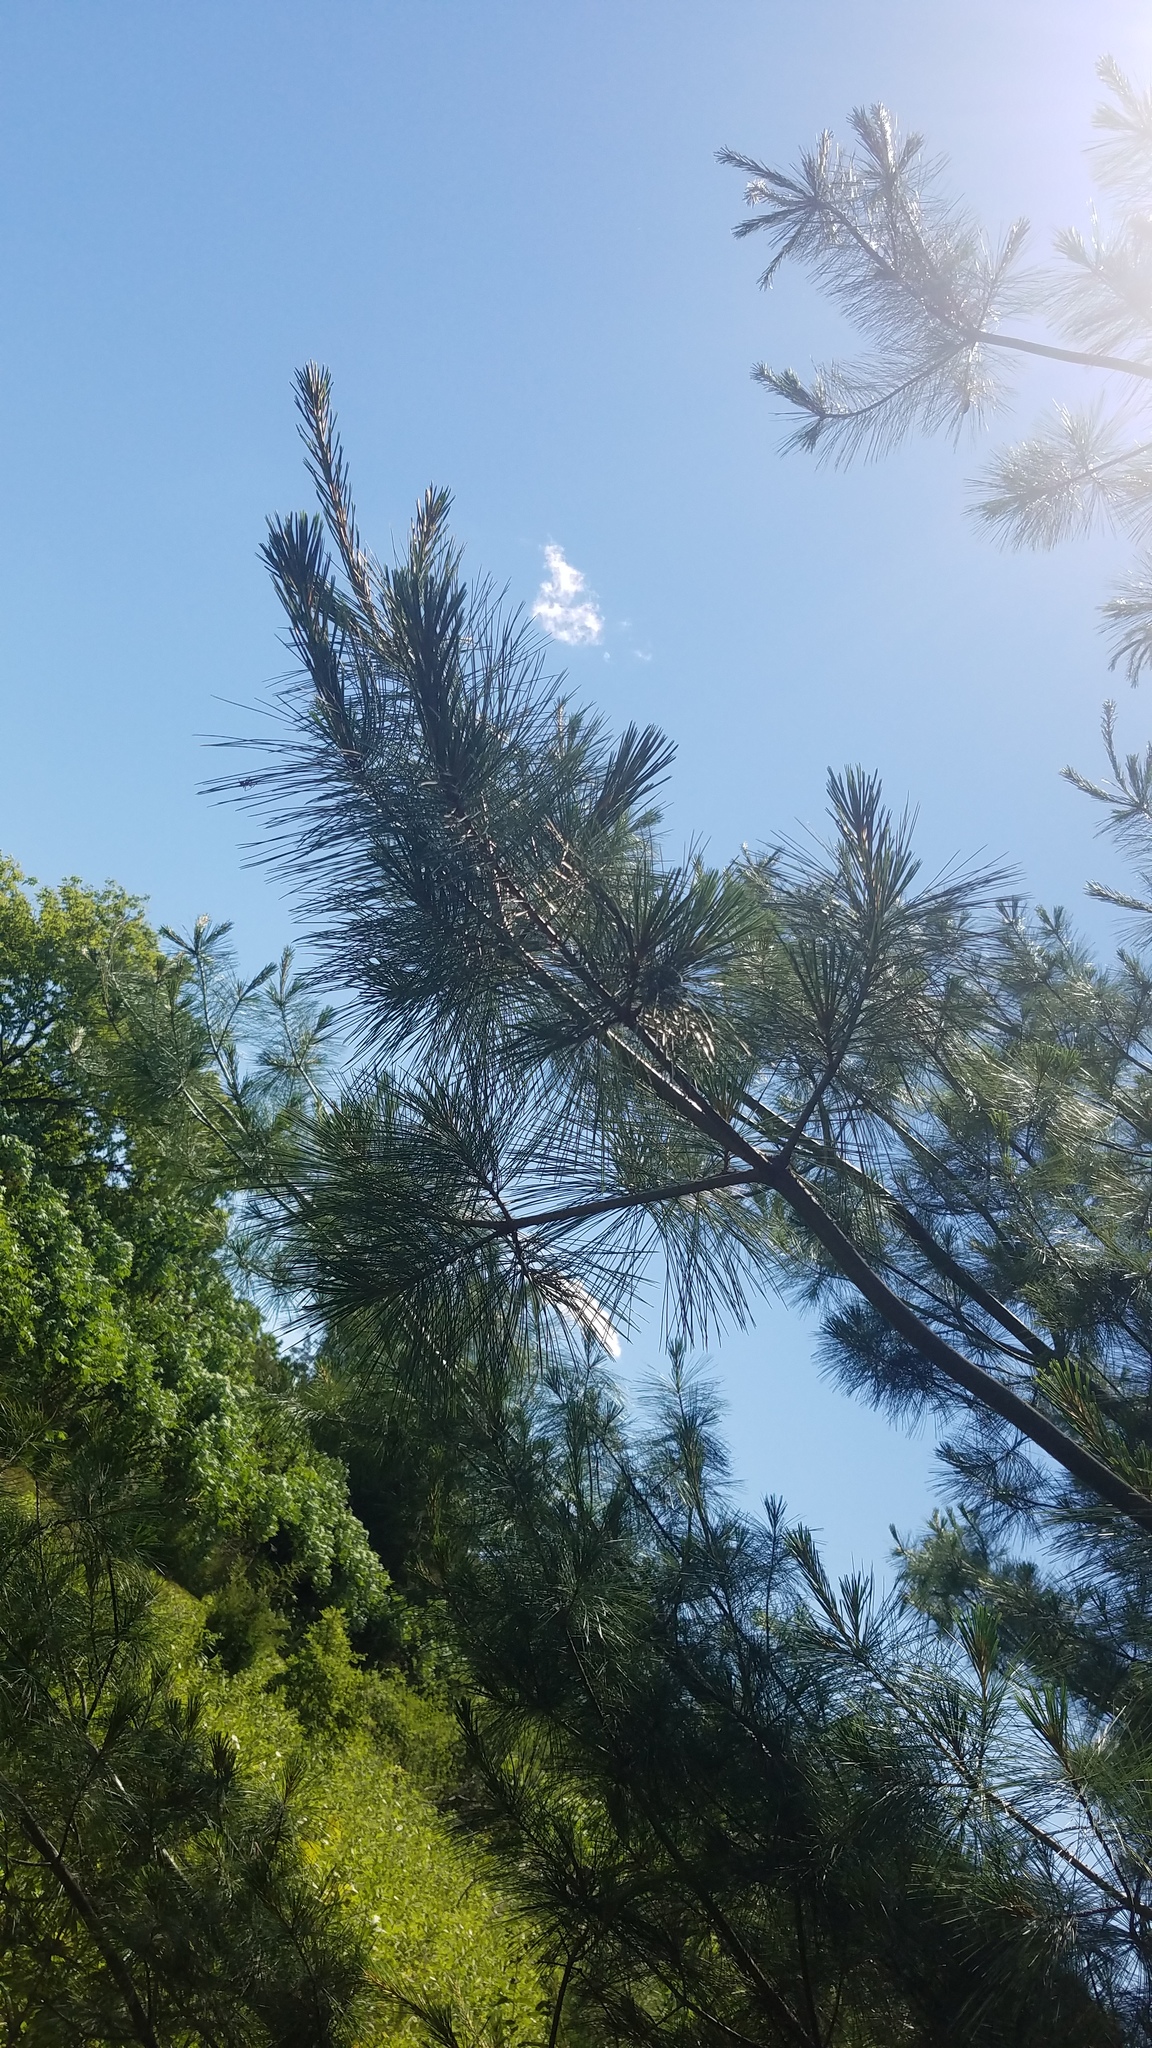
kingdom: Plantae
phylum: Tracheophyta
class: Pinopsida
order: Pinales
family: Pinaceae
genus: Pinus
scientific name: Pinus resinosa
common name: Norway pine
